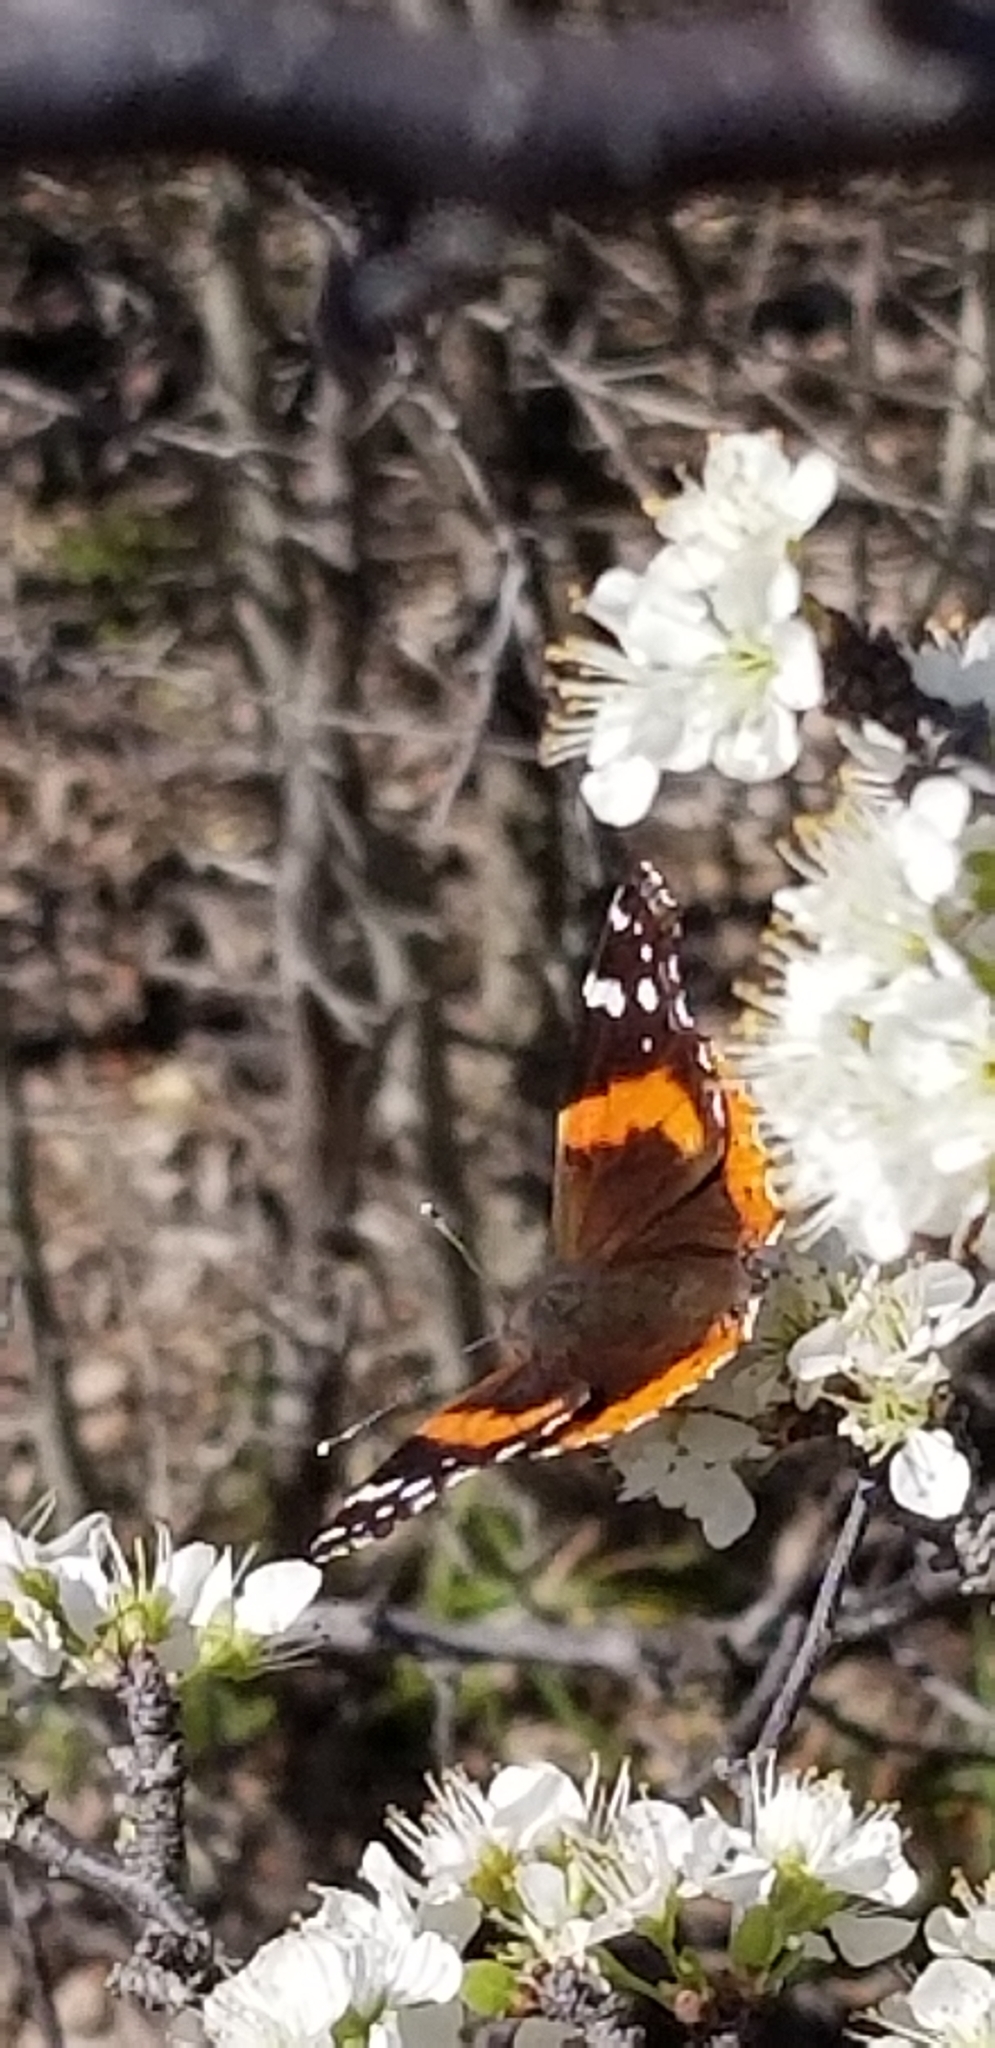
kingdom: Animalia
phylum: Arthropoda
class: Insecta
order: Lepidoptera
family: Nymphalidae
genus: Vanessa
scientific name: Vanessa atalanta
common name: Red admiral
